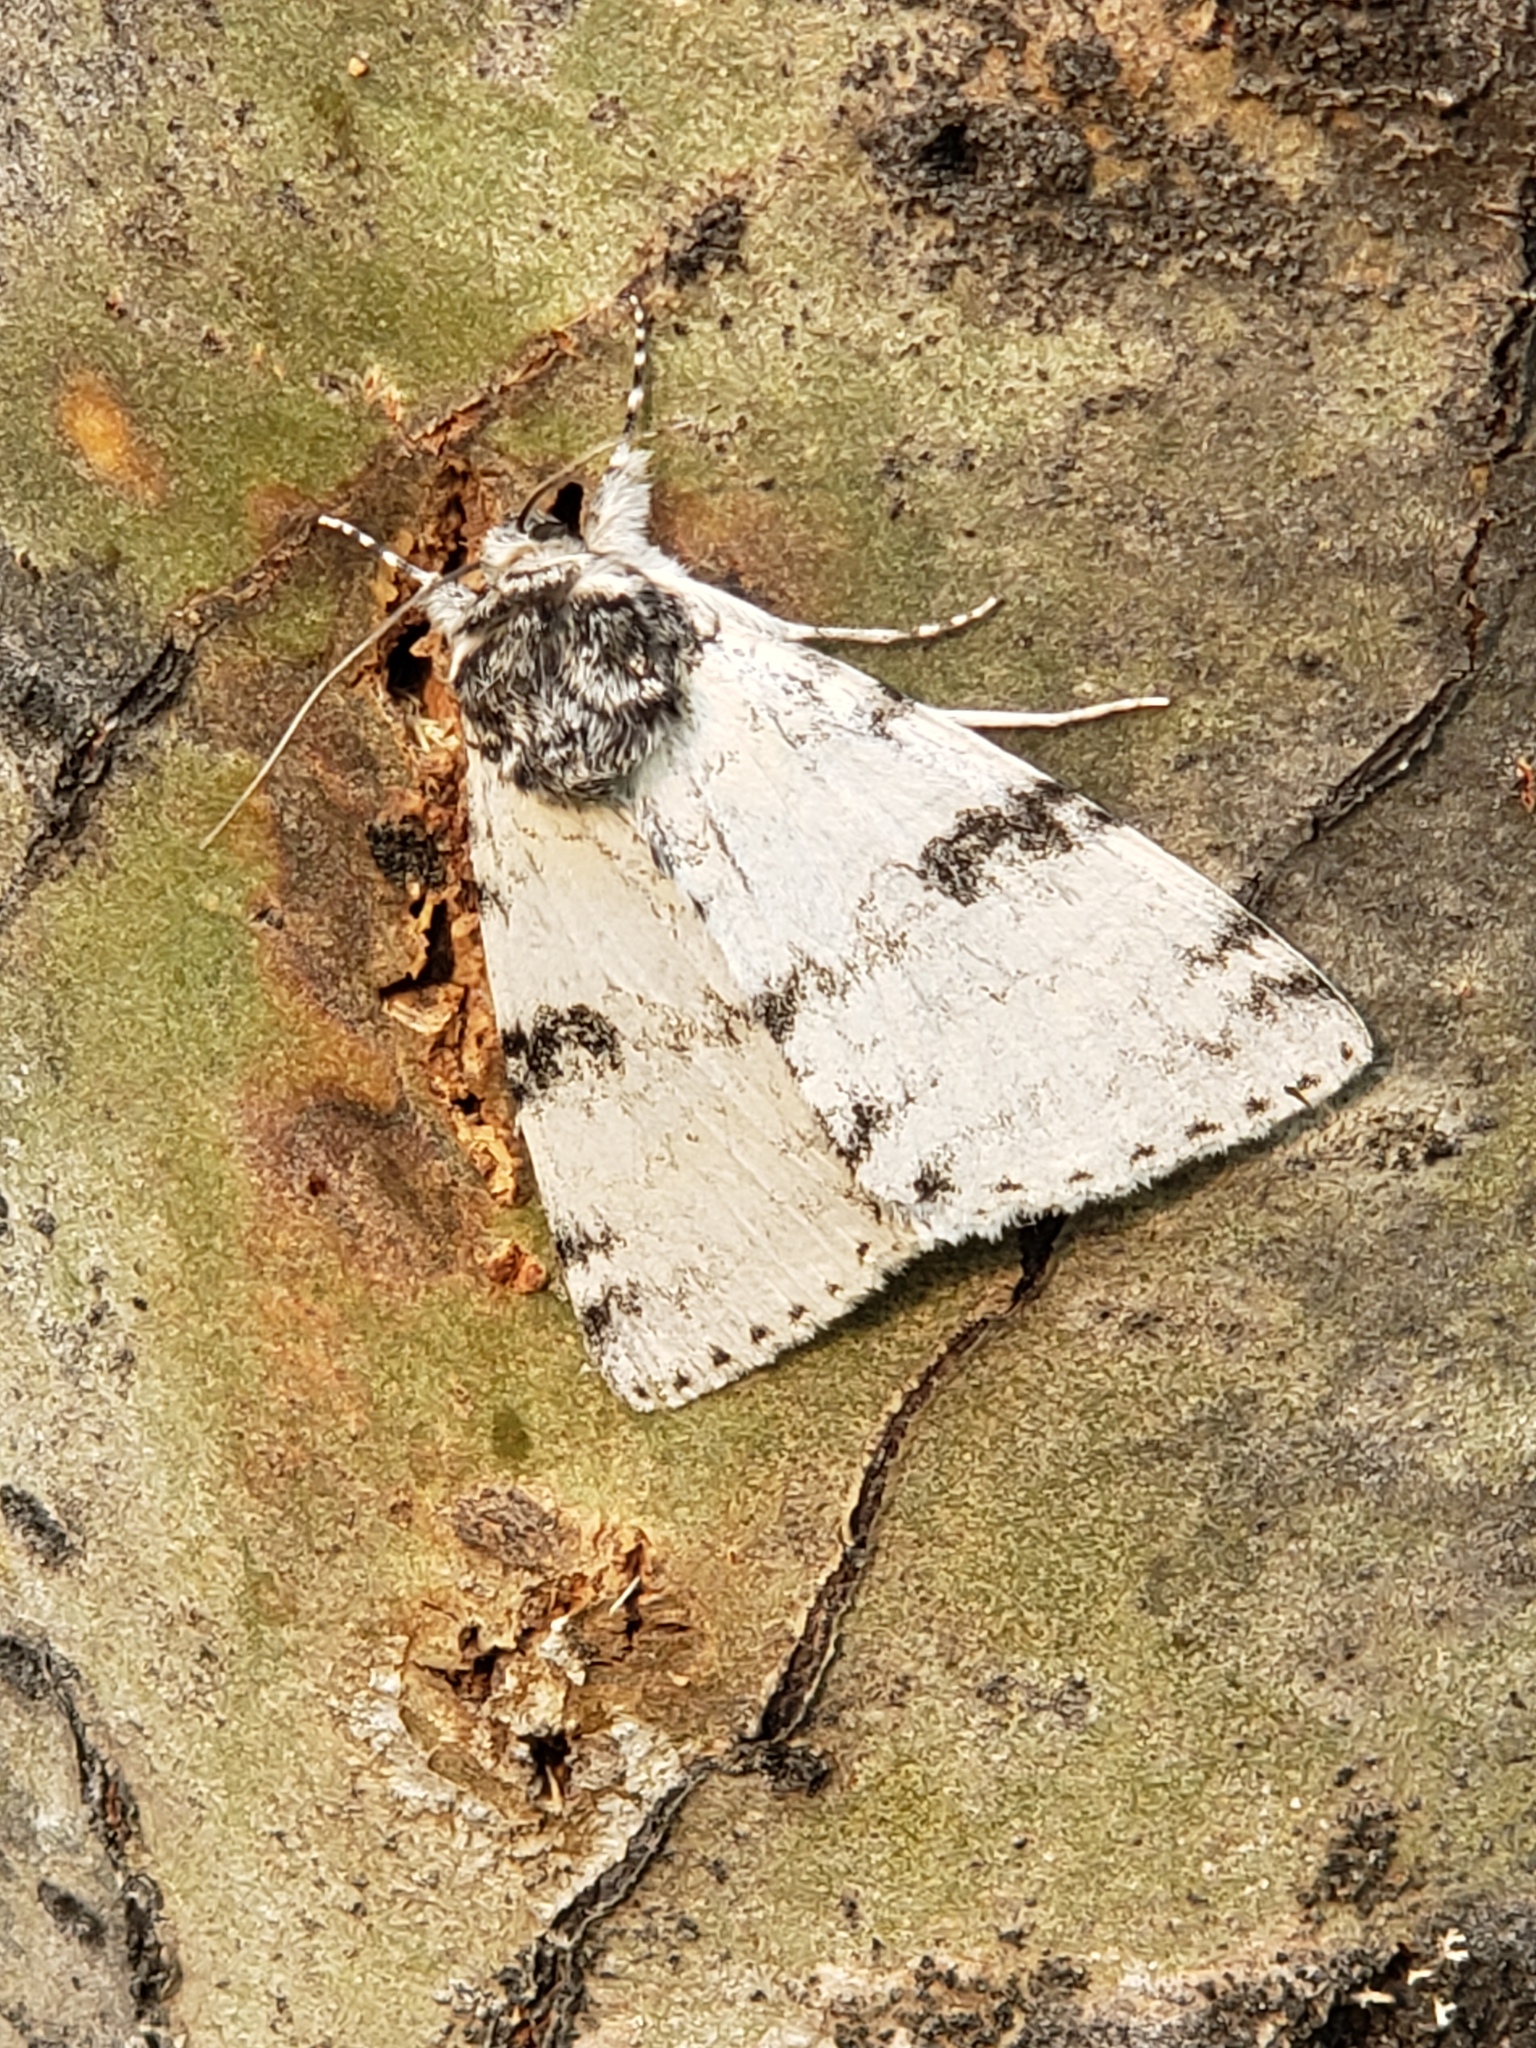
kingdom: Animalia
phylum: Arthropoda
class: Insecta
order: Lepidoptera
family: Erebidae
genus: Catocala
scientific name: Catocala relicta
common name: White underwing
